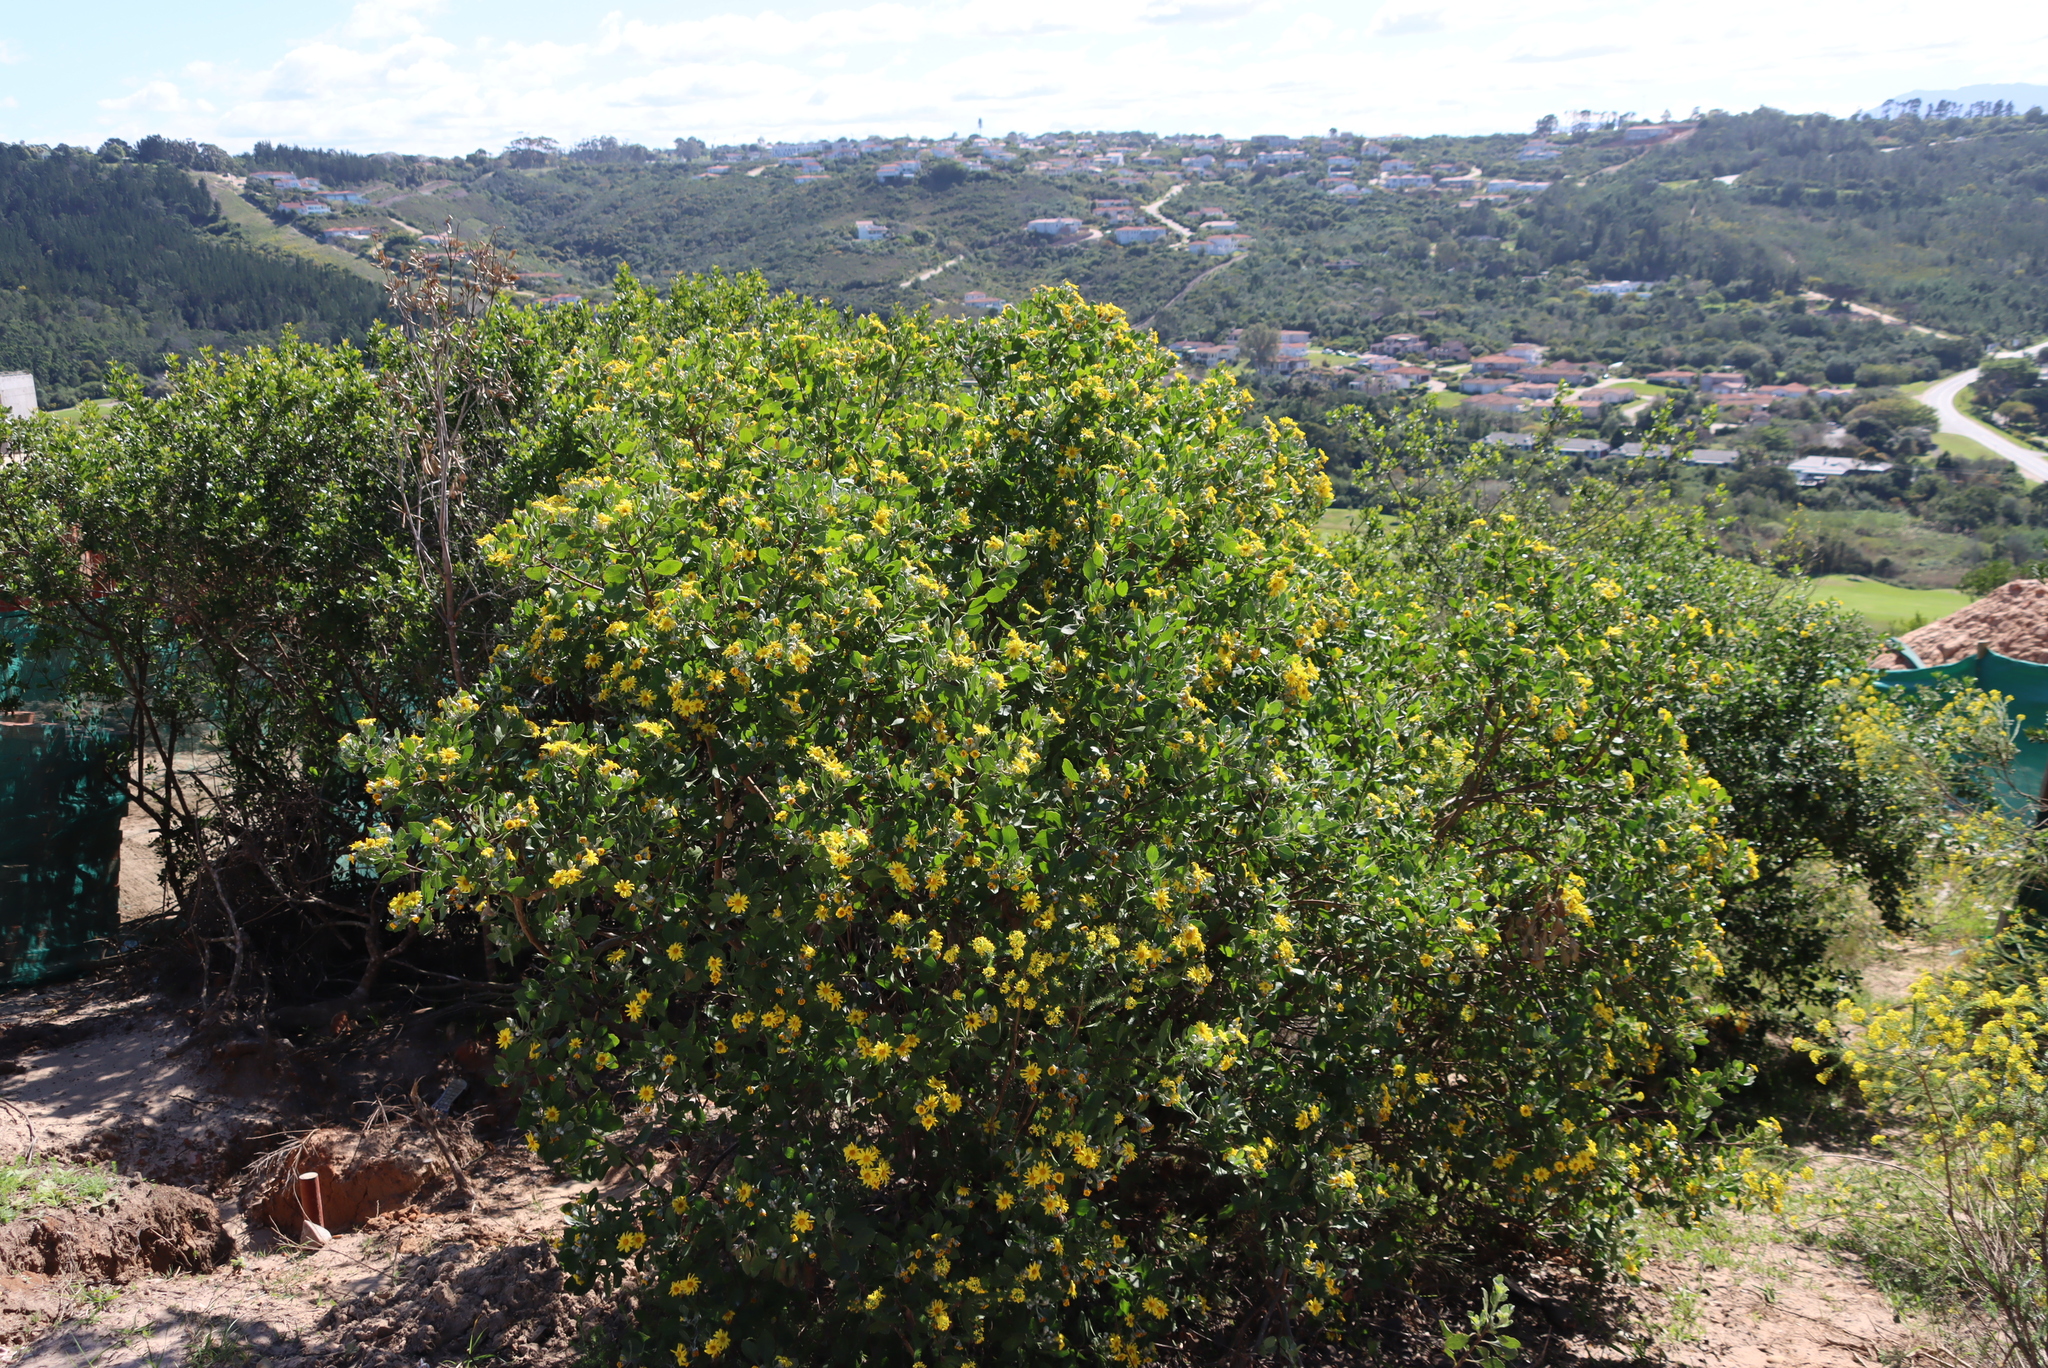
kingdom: Plantae
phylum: Tracheophyta
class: Magnoliopsida
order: Asterales
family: Asteraceae
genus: Osteospermum
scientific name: Osteospermum moniliferum
